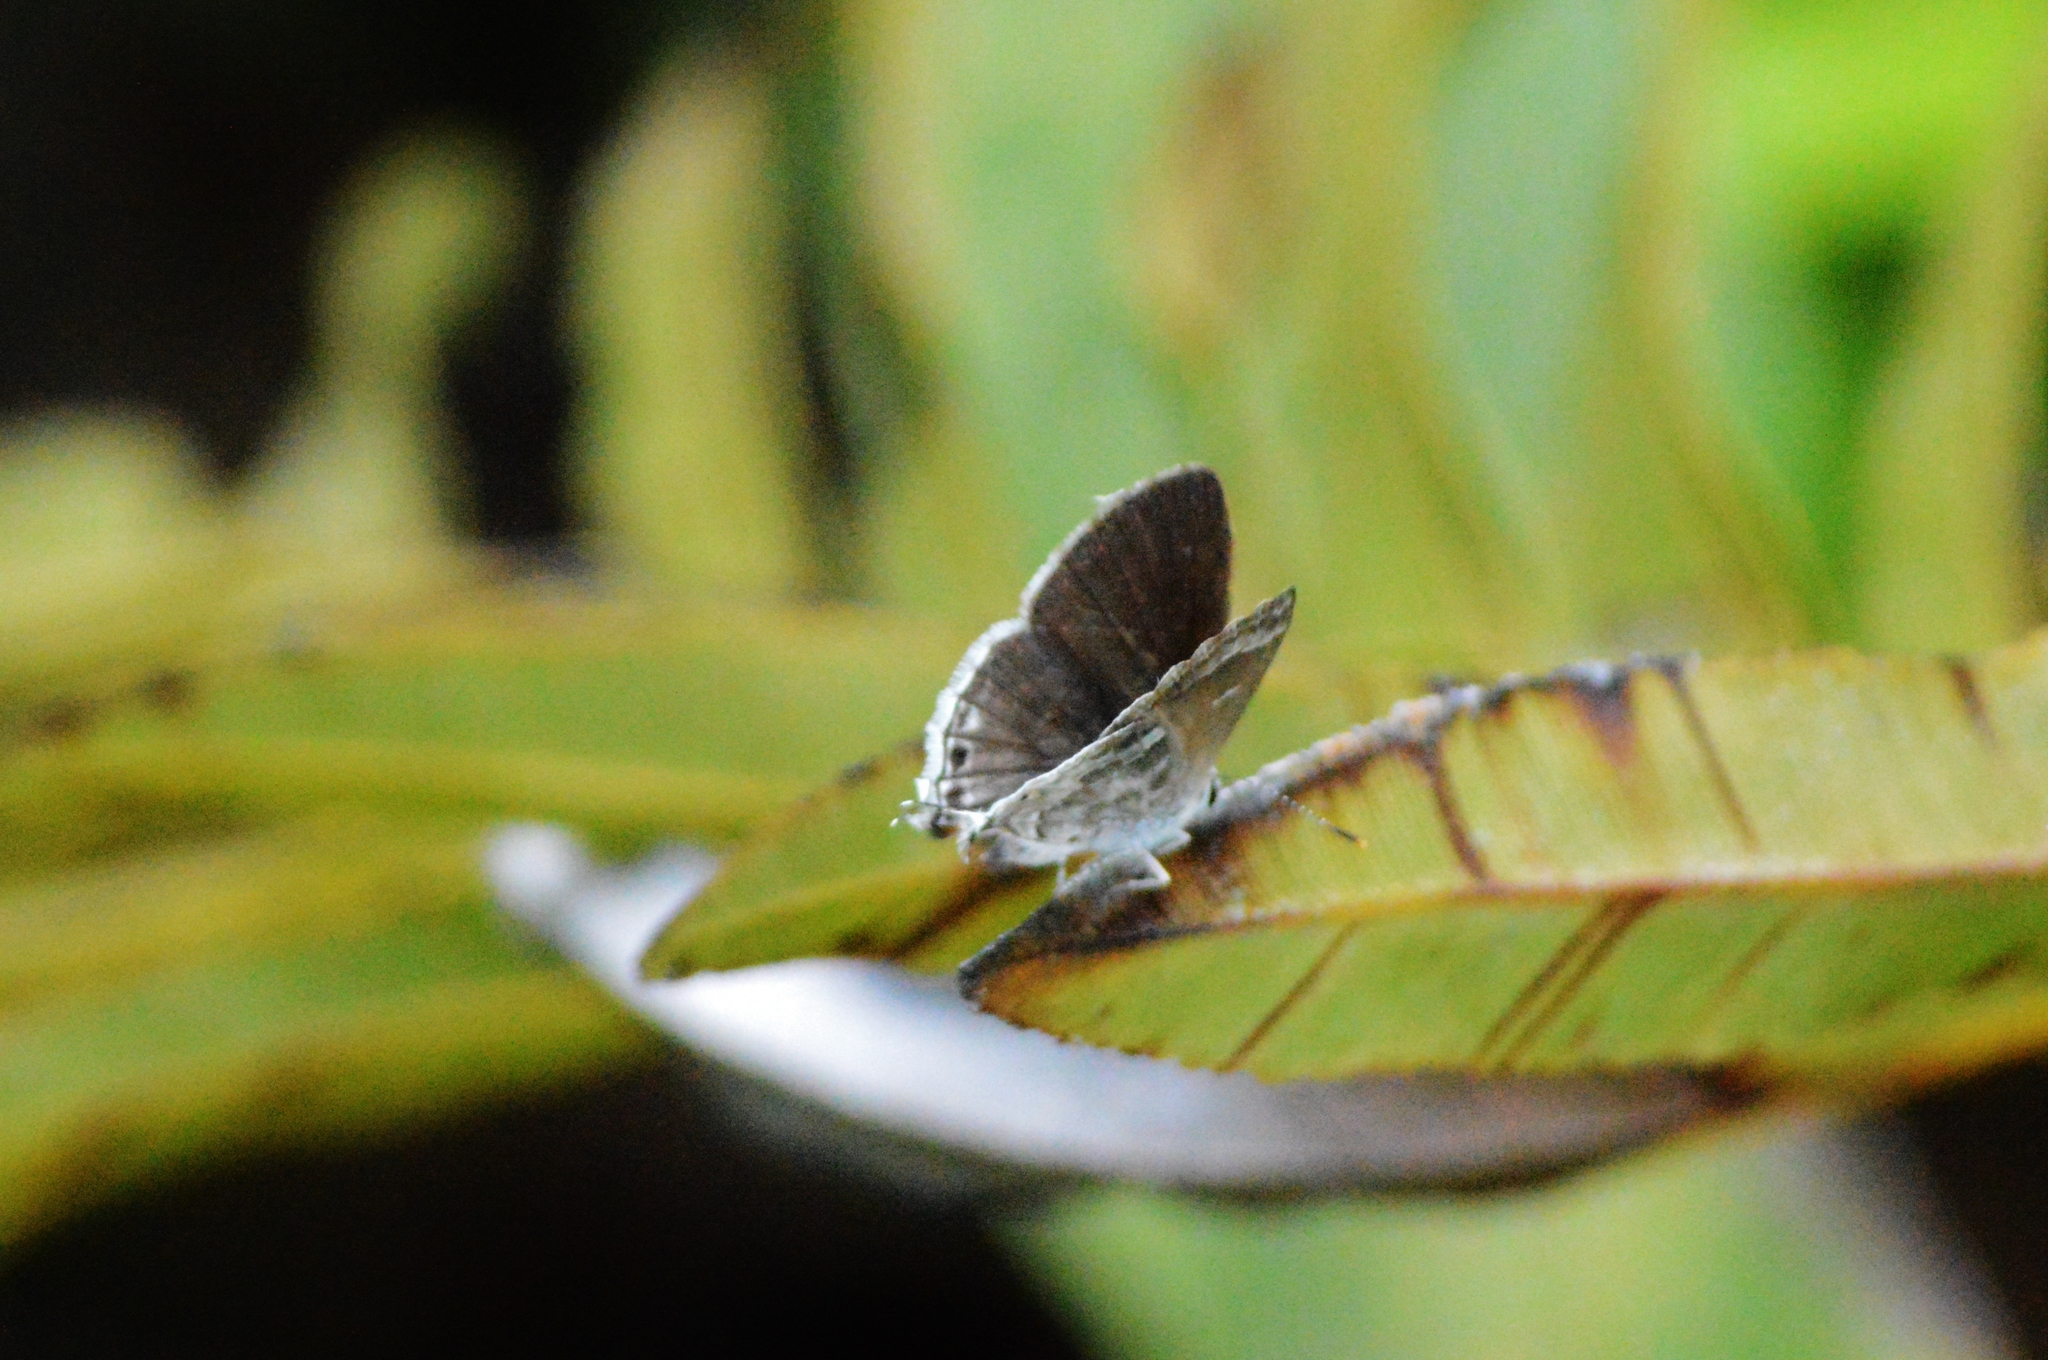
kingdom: Animalia
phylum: Arthropoda
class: Insecta
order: Lepidoptera
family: Lycaenidae
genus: Strymon
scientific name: Strymon mulucha
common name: Mottled scrub-hairstreak
